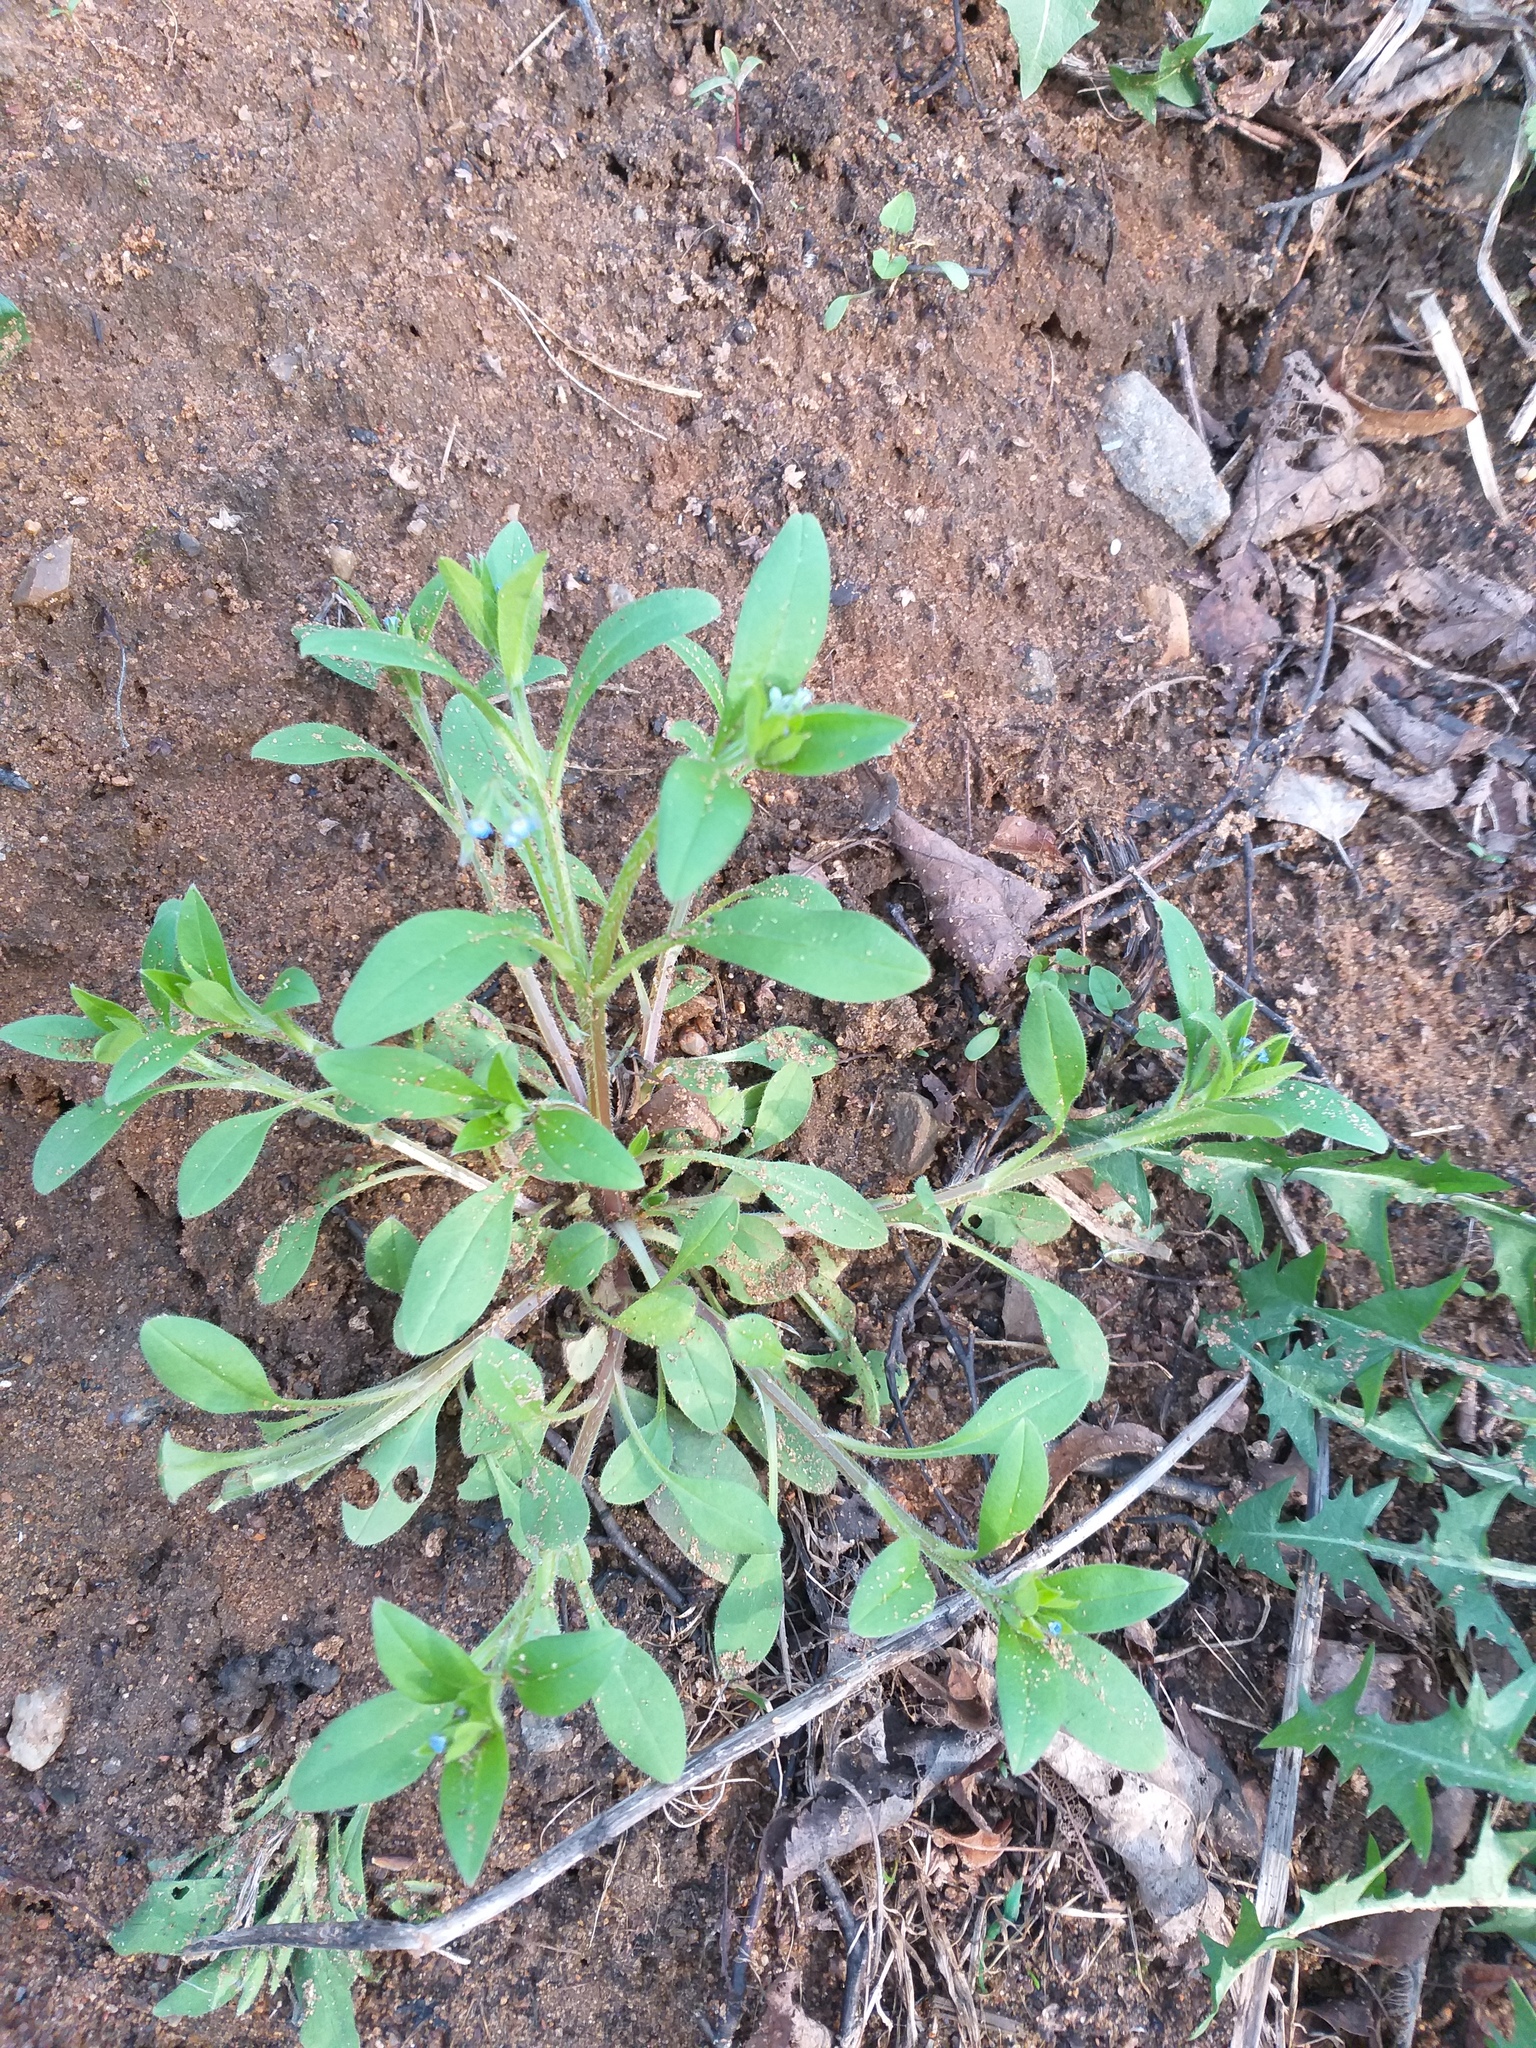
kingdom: Plantae
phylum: Tracheophyta
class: Magnoliopsida
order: Boraginales
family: Boraginaceae
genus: Myosotis
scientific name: Myosotis sparsiflora
